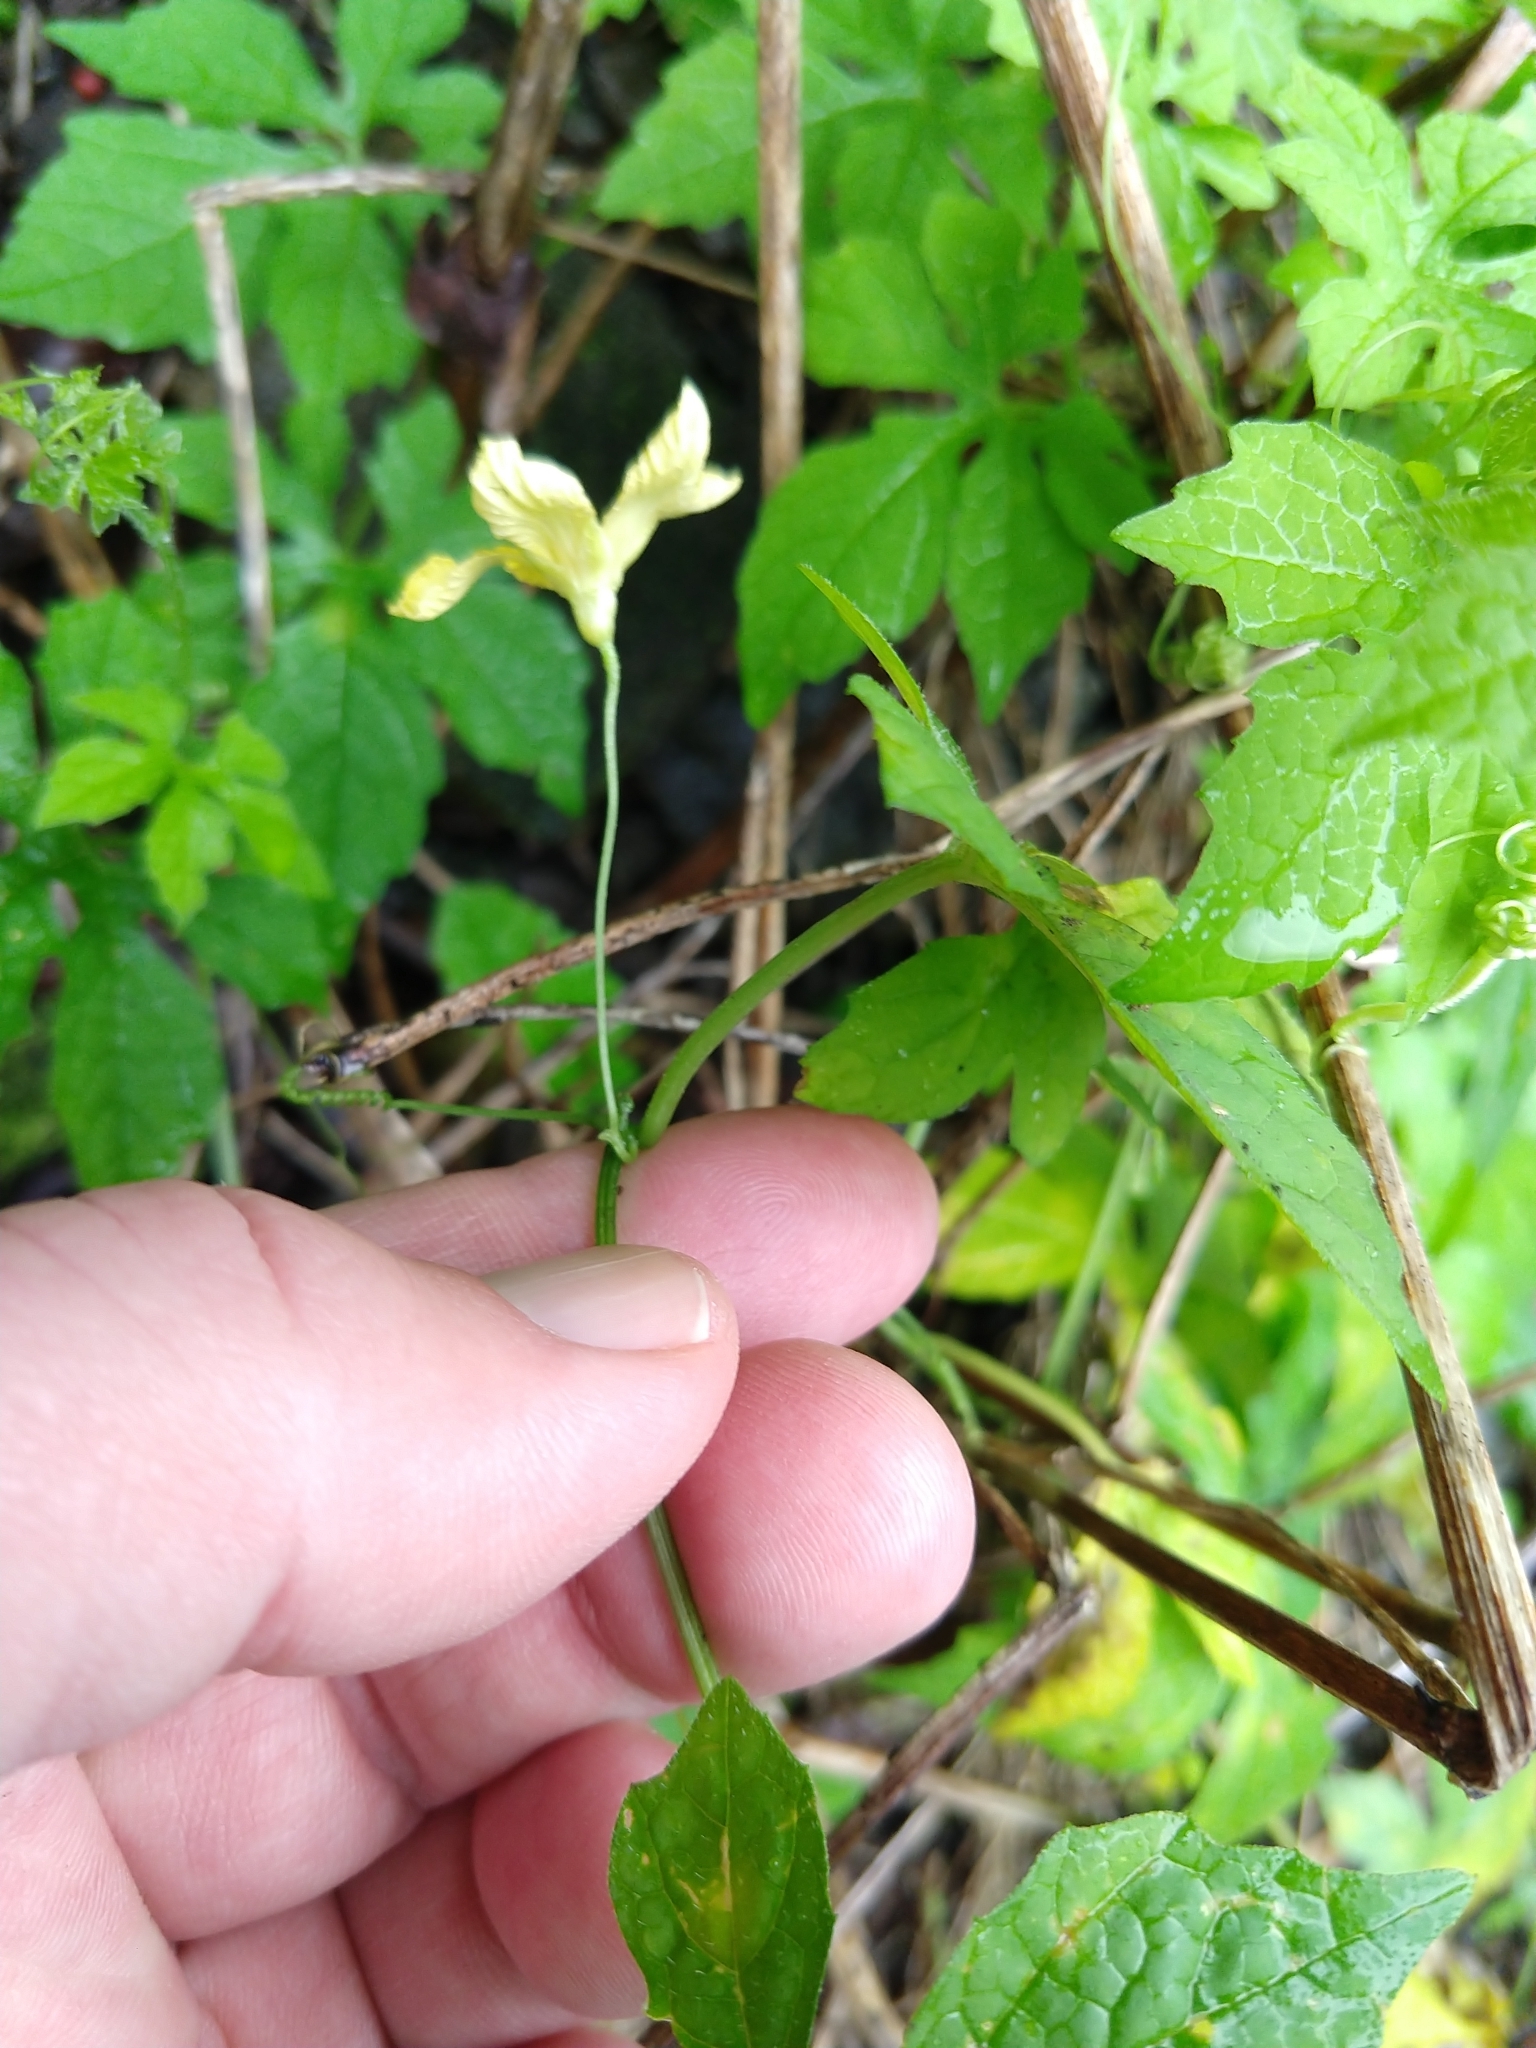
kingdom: Plantae
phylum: Tracheophyta
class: Magnoliopsida
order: Cucurbitales
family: Cucurbitaceae
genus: Momordica
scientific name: Momordica charantia
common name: Balsampear
